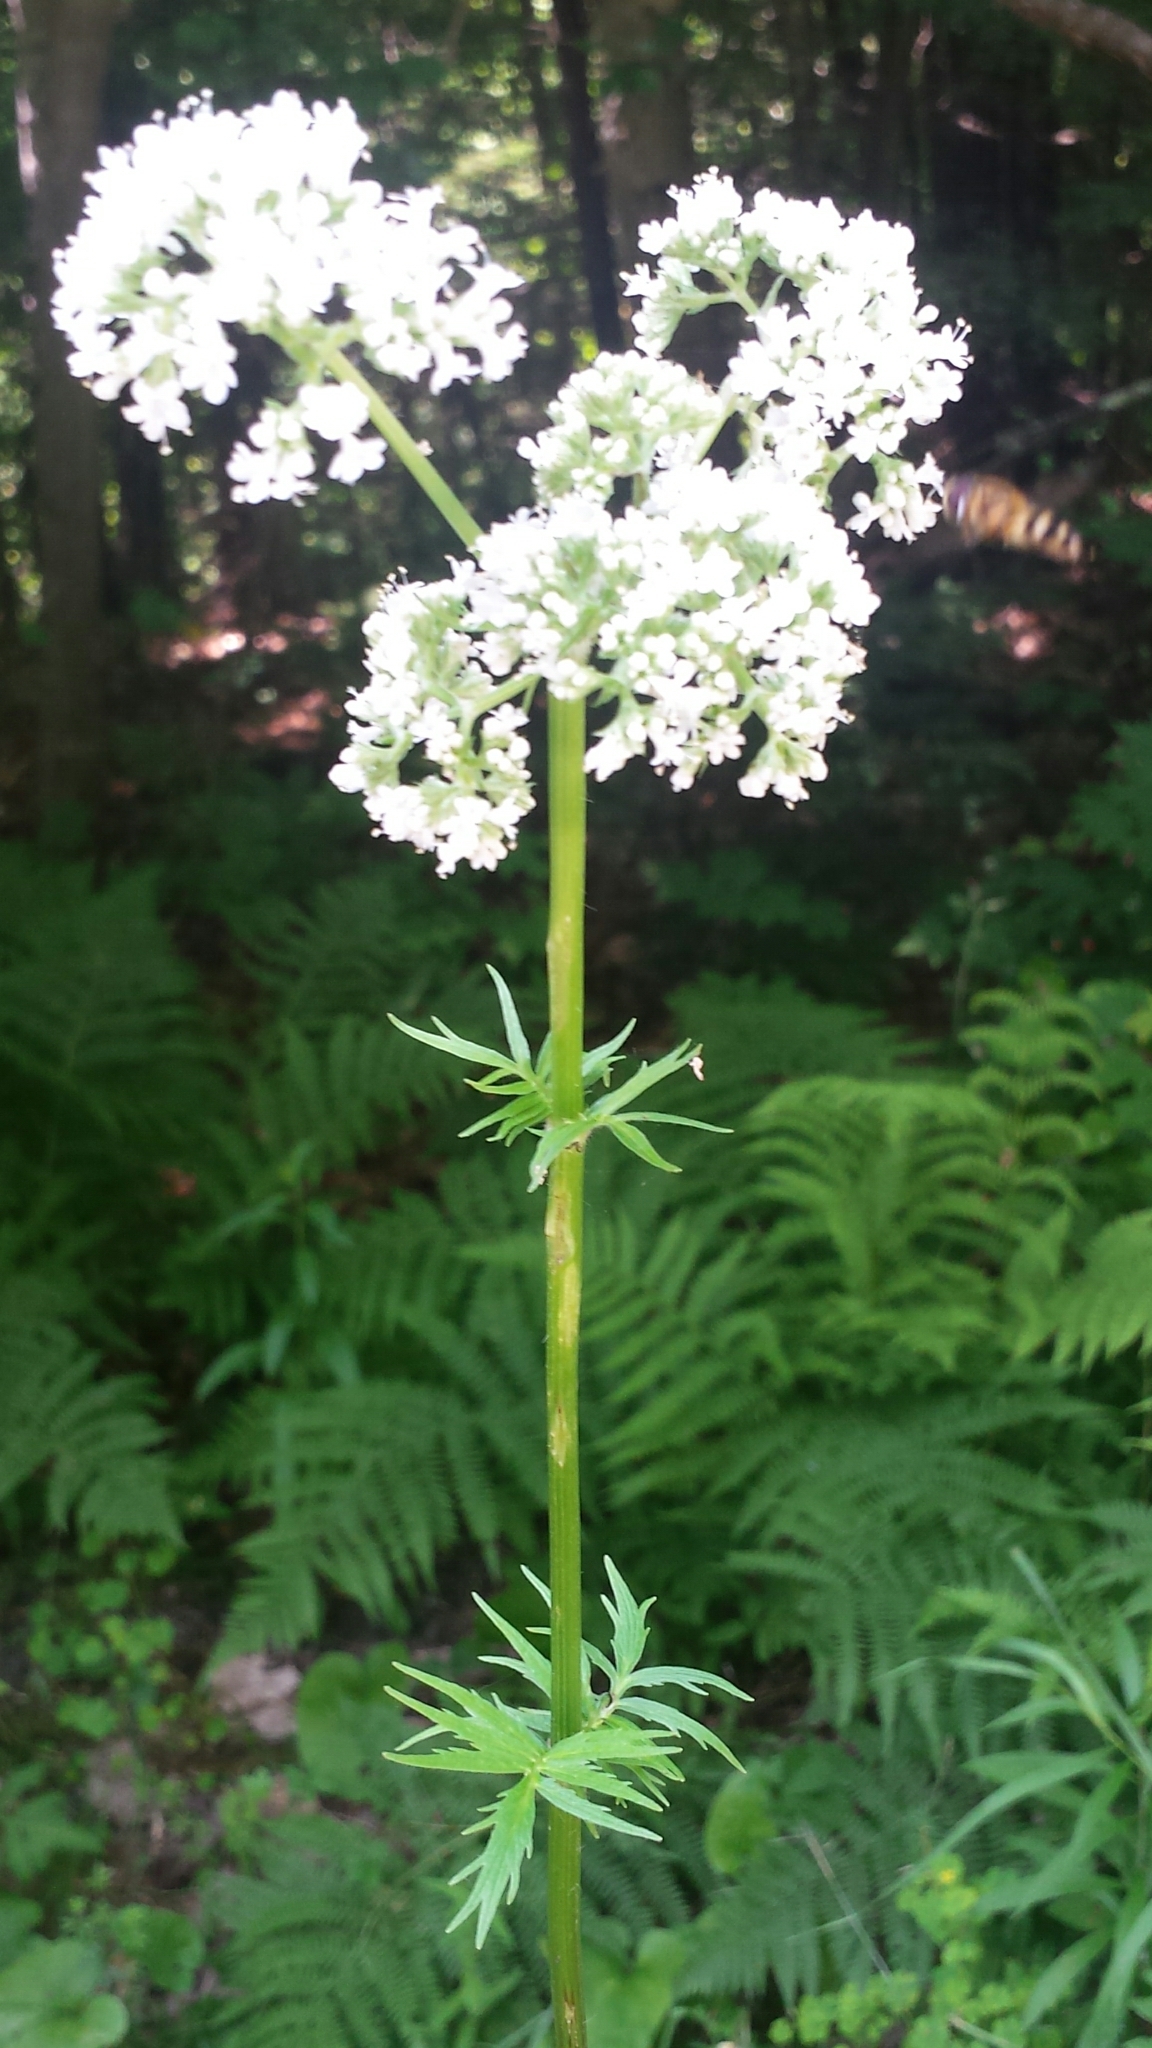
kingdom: Plantae
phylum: Tracheophyta
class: Magnoliopsida
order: Dipsacales
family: Caprifoliaceae
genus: Valeriana
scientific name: Valeriana officinalis
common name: Common valerian
